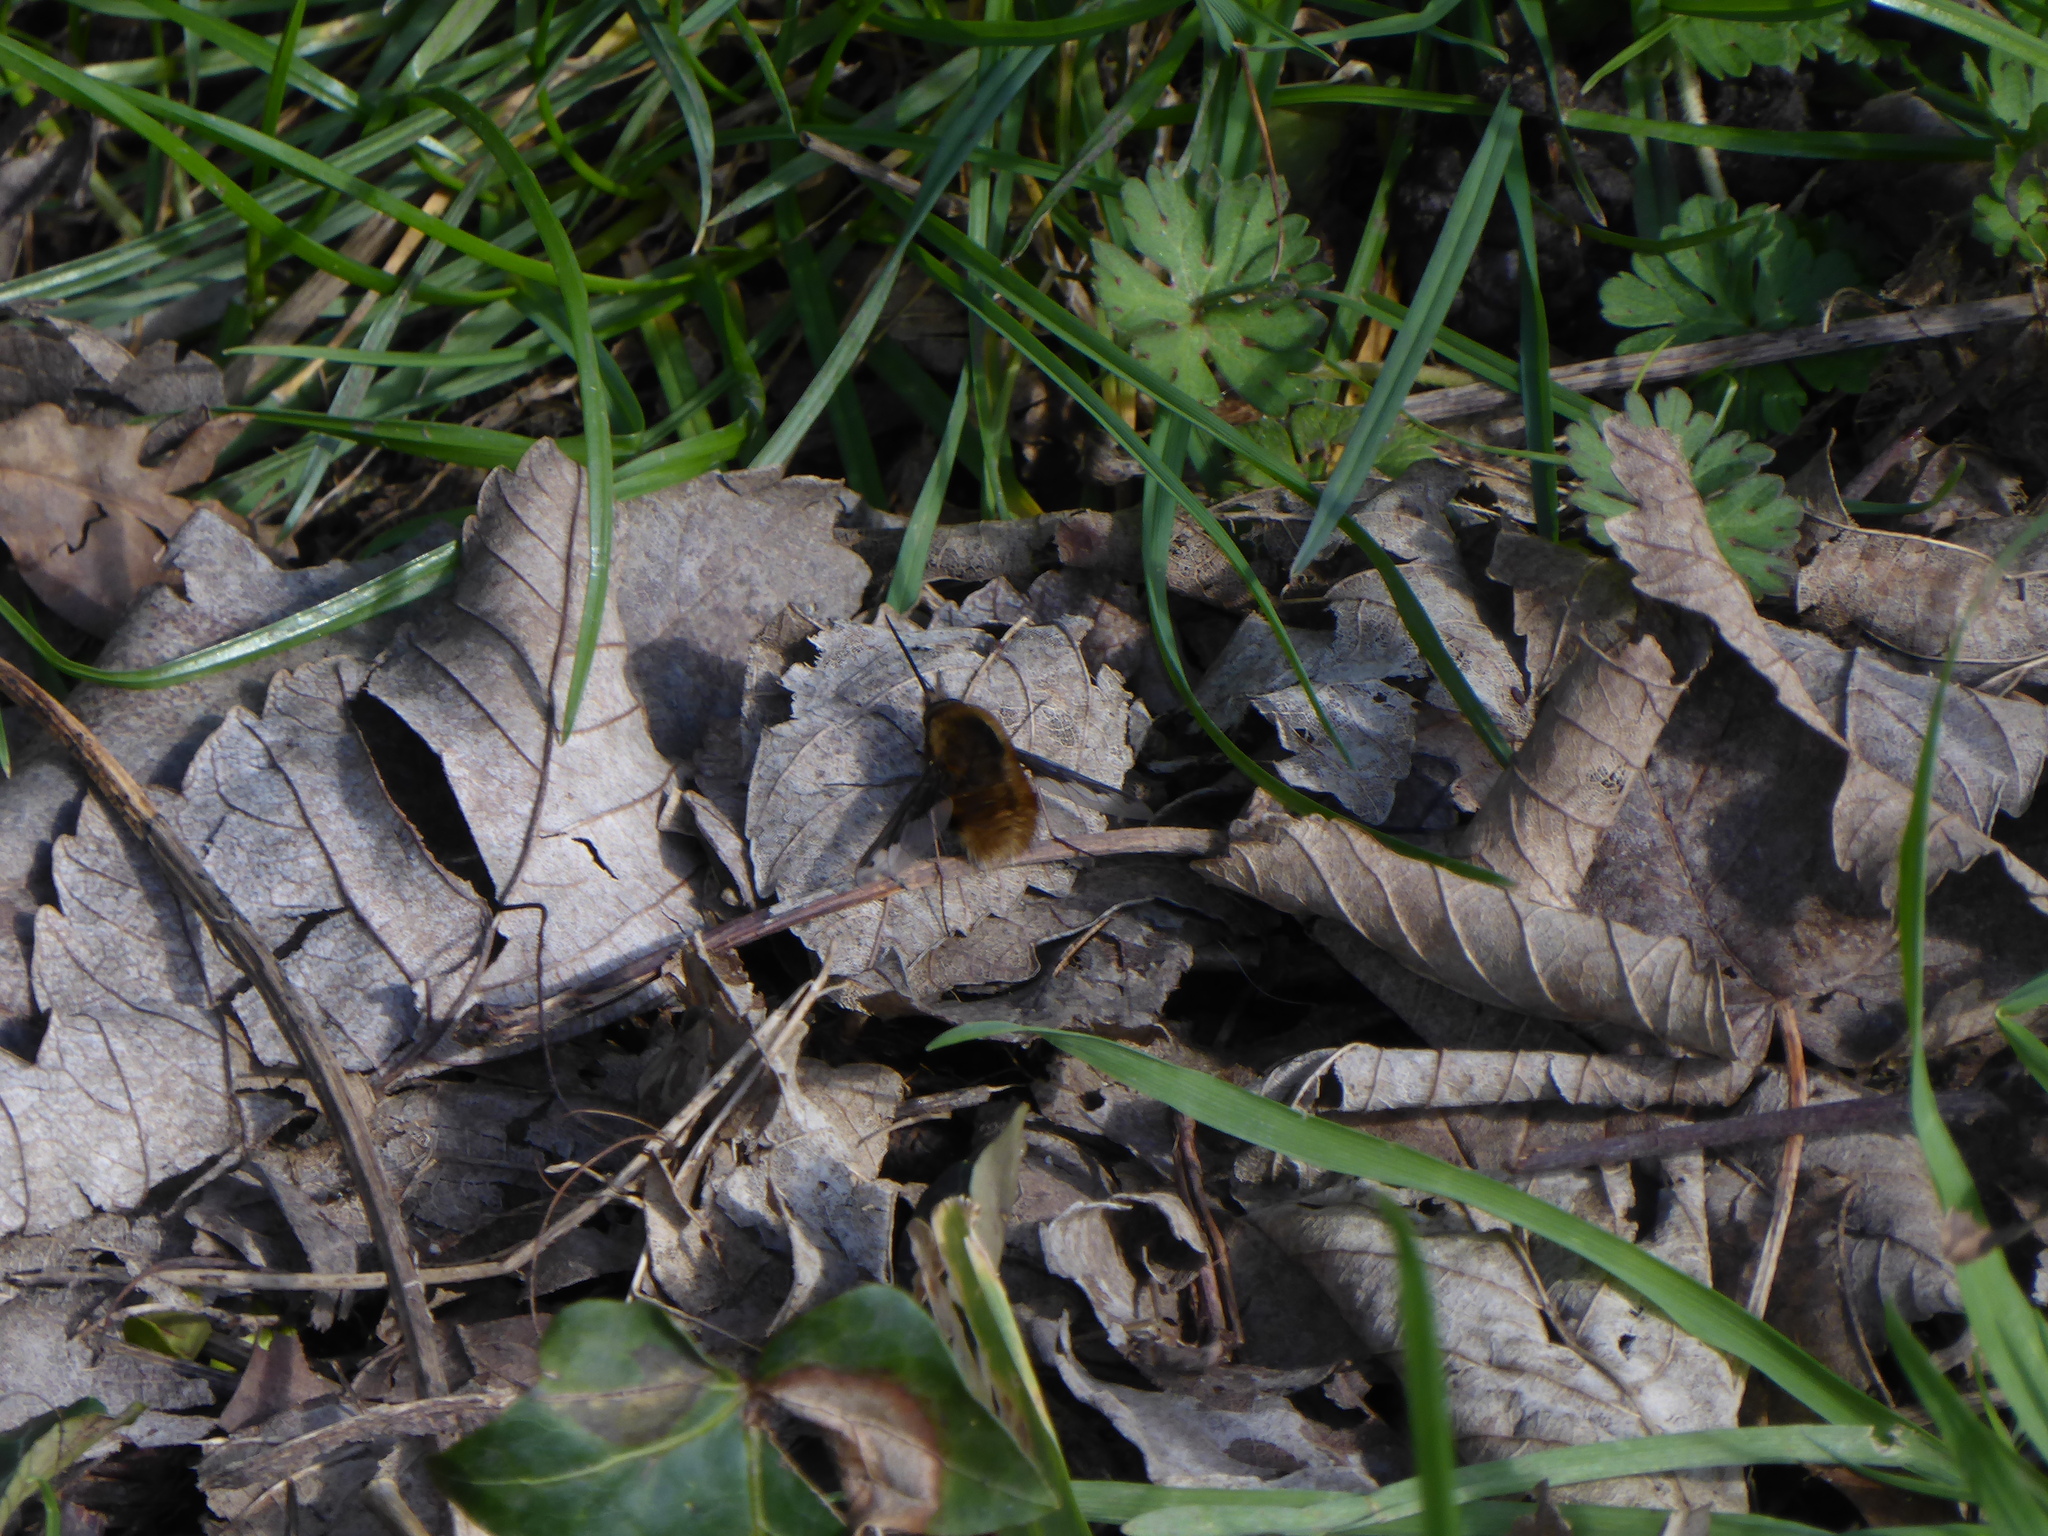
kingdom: Animalia
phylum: Arthropoda
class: Insecta
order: Diptera
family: Bombyliidae
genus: Bombylius
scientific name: Bombylius major
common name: Bee fly
